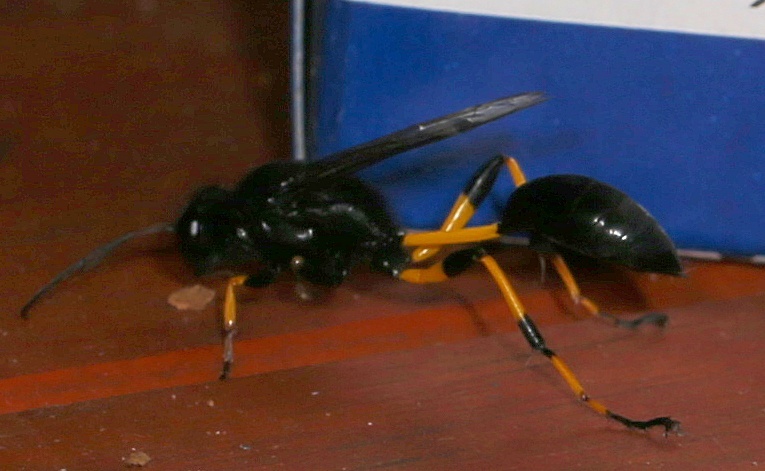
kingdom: Animalia
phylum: Arthropoda
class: Insecta
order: Hymenoptera
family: Sphecidae
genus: Sceliphron
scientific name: Sceliphron spirifex
